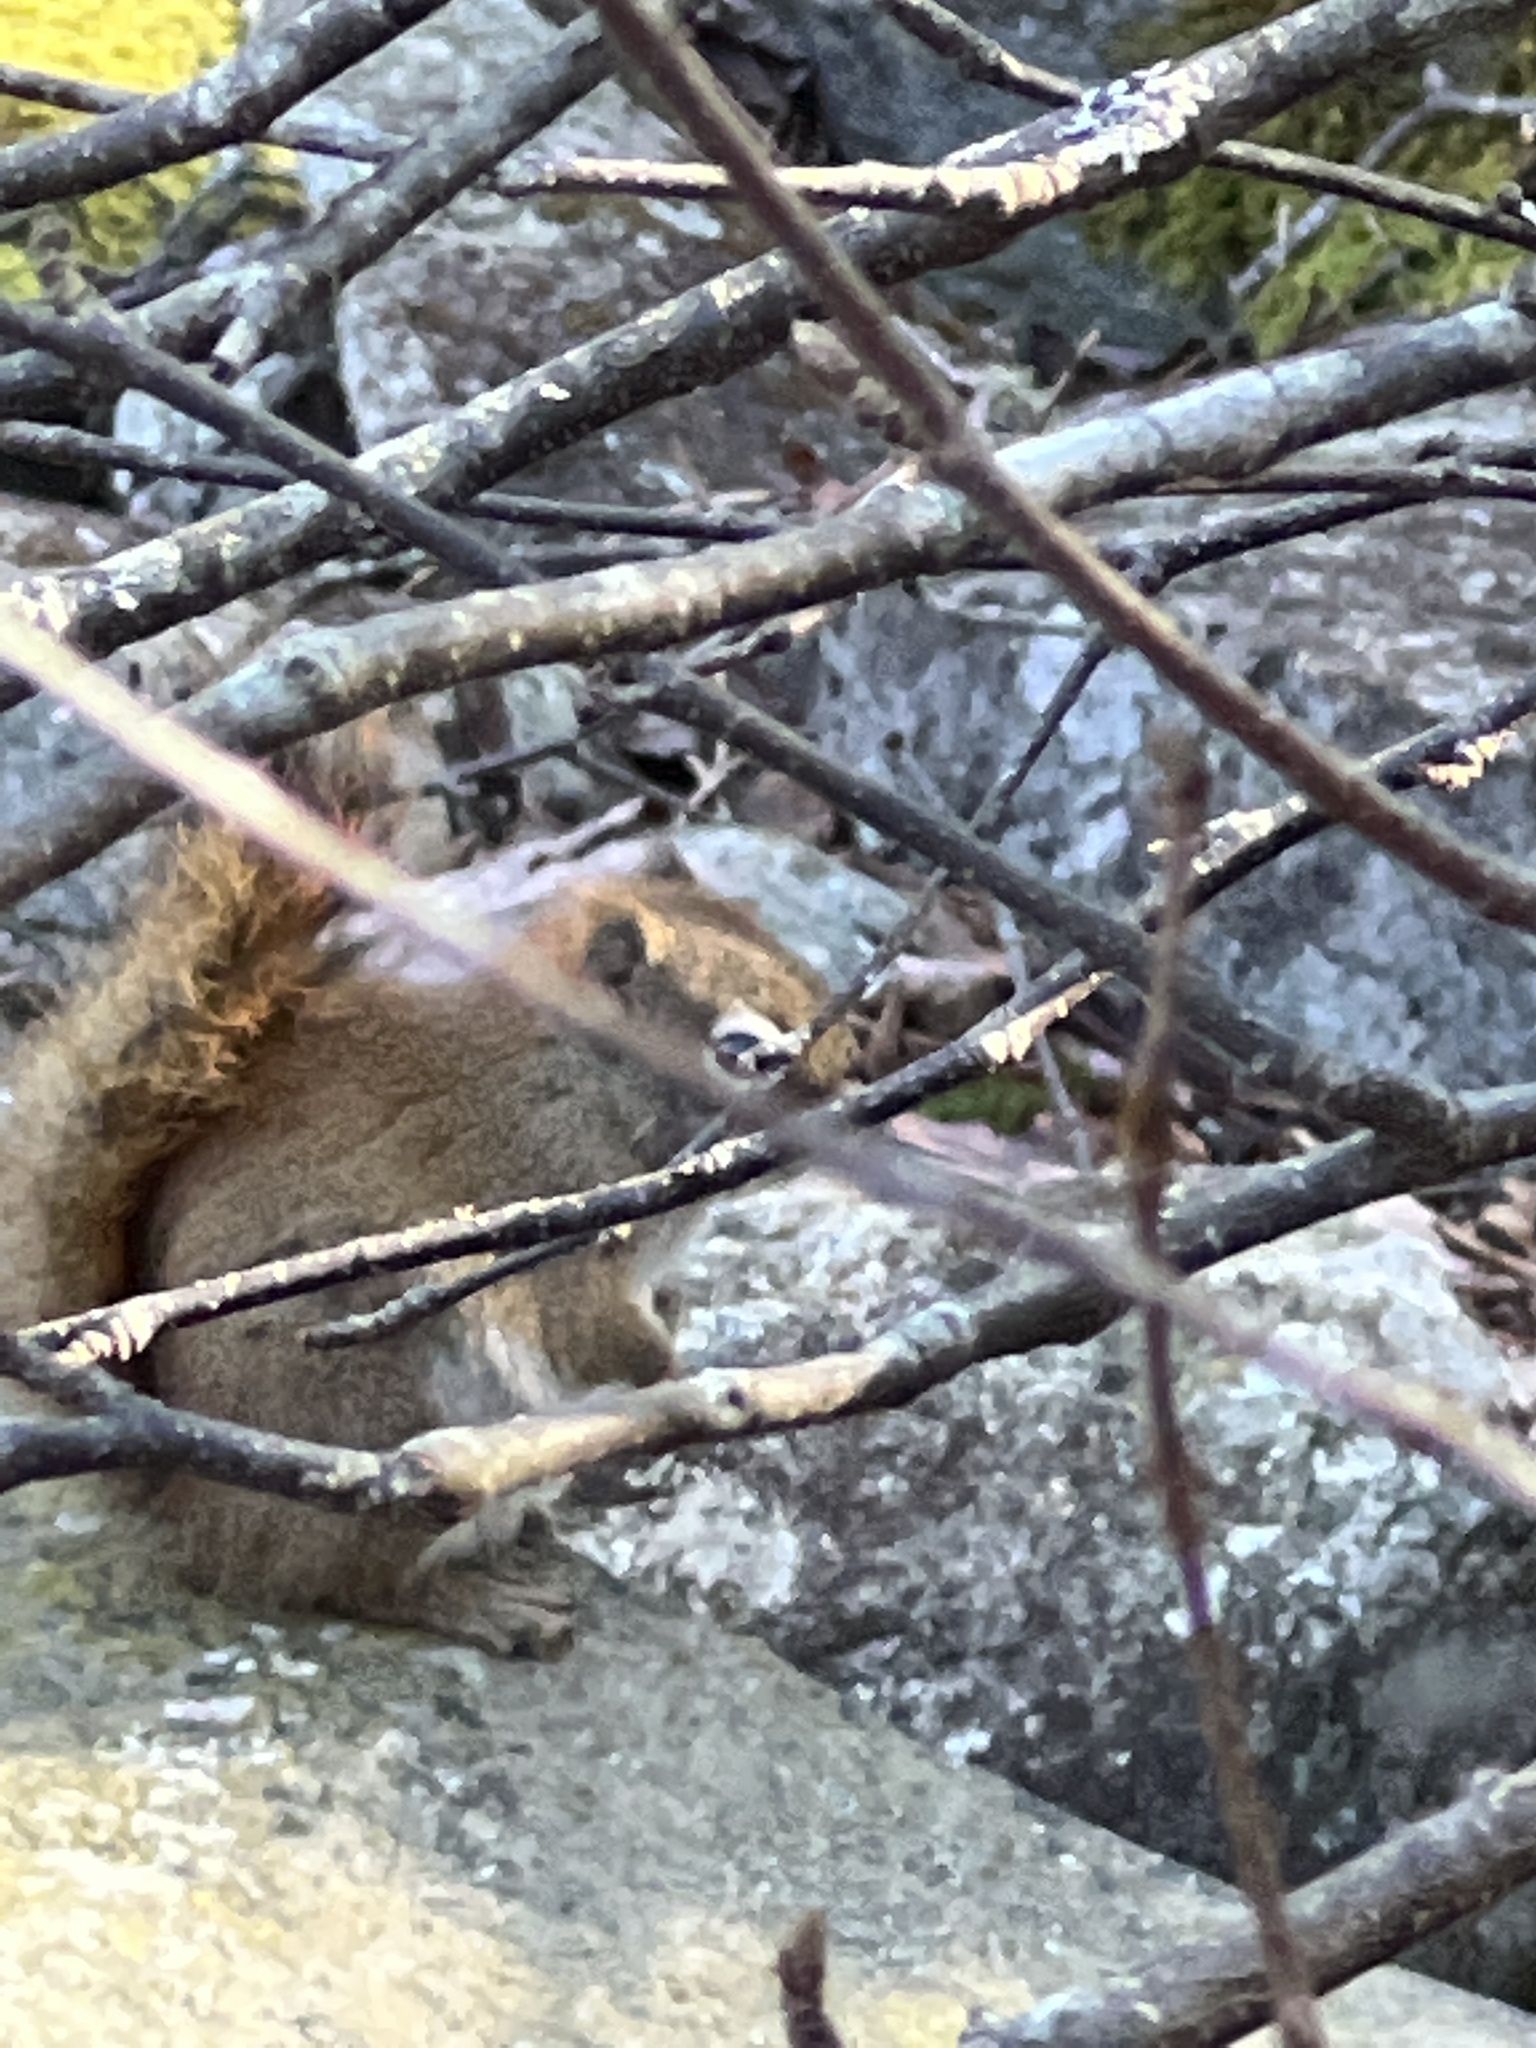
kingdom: Animalia
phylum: Chordata
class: Mammalia
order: Rodentia
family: Sciuridae
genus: Tamiasciurus
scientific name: Tamiasciurus hudsonicus
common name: Red squirrel
